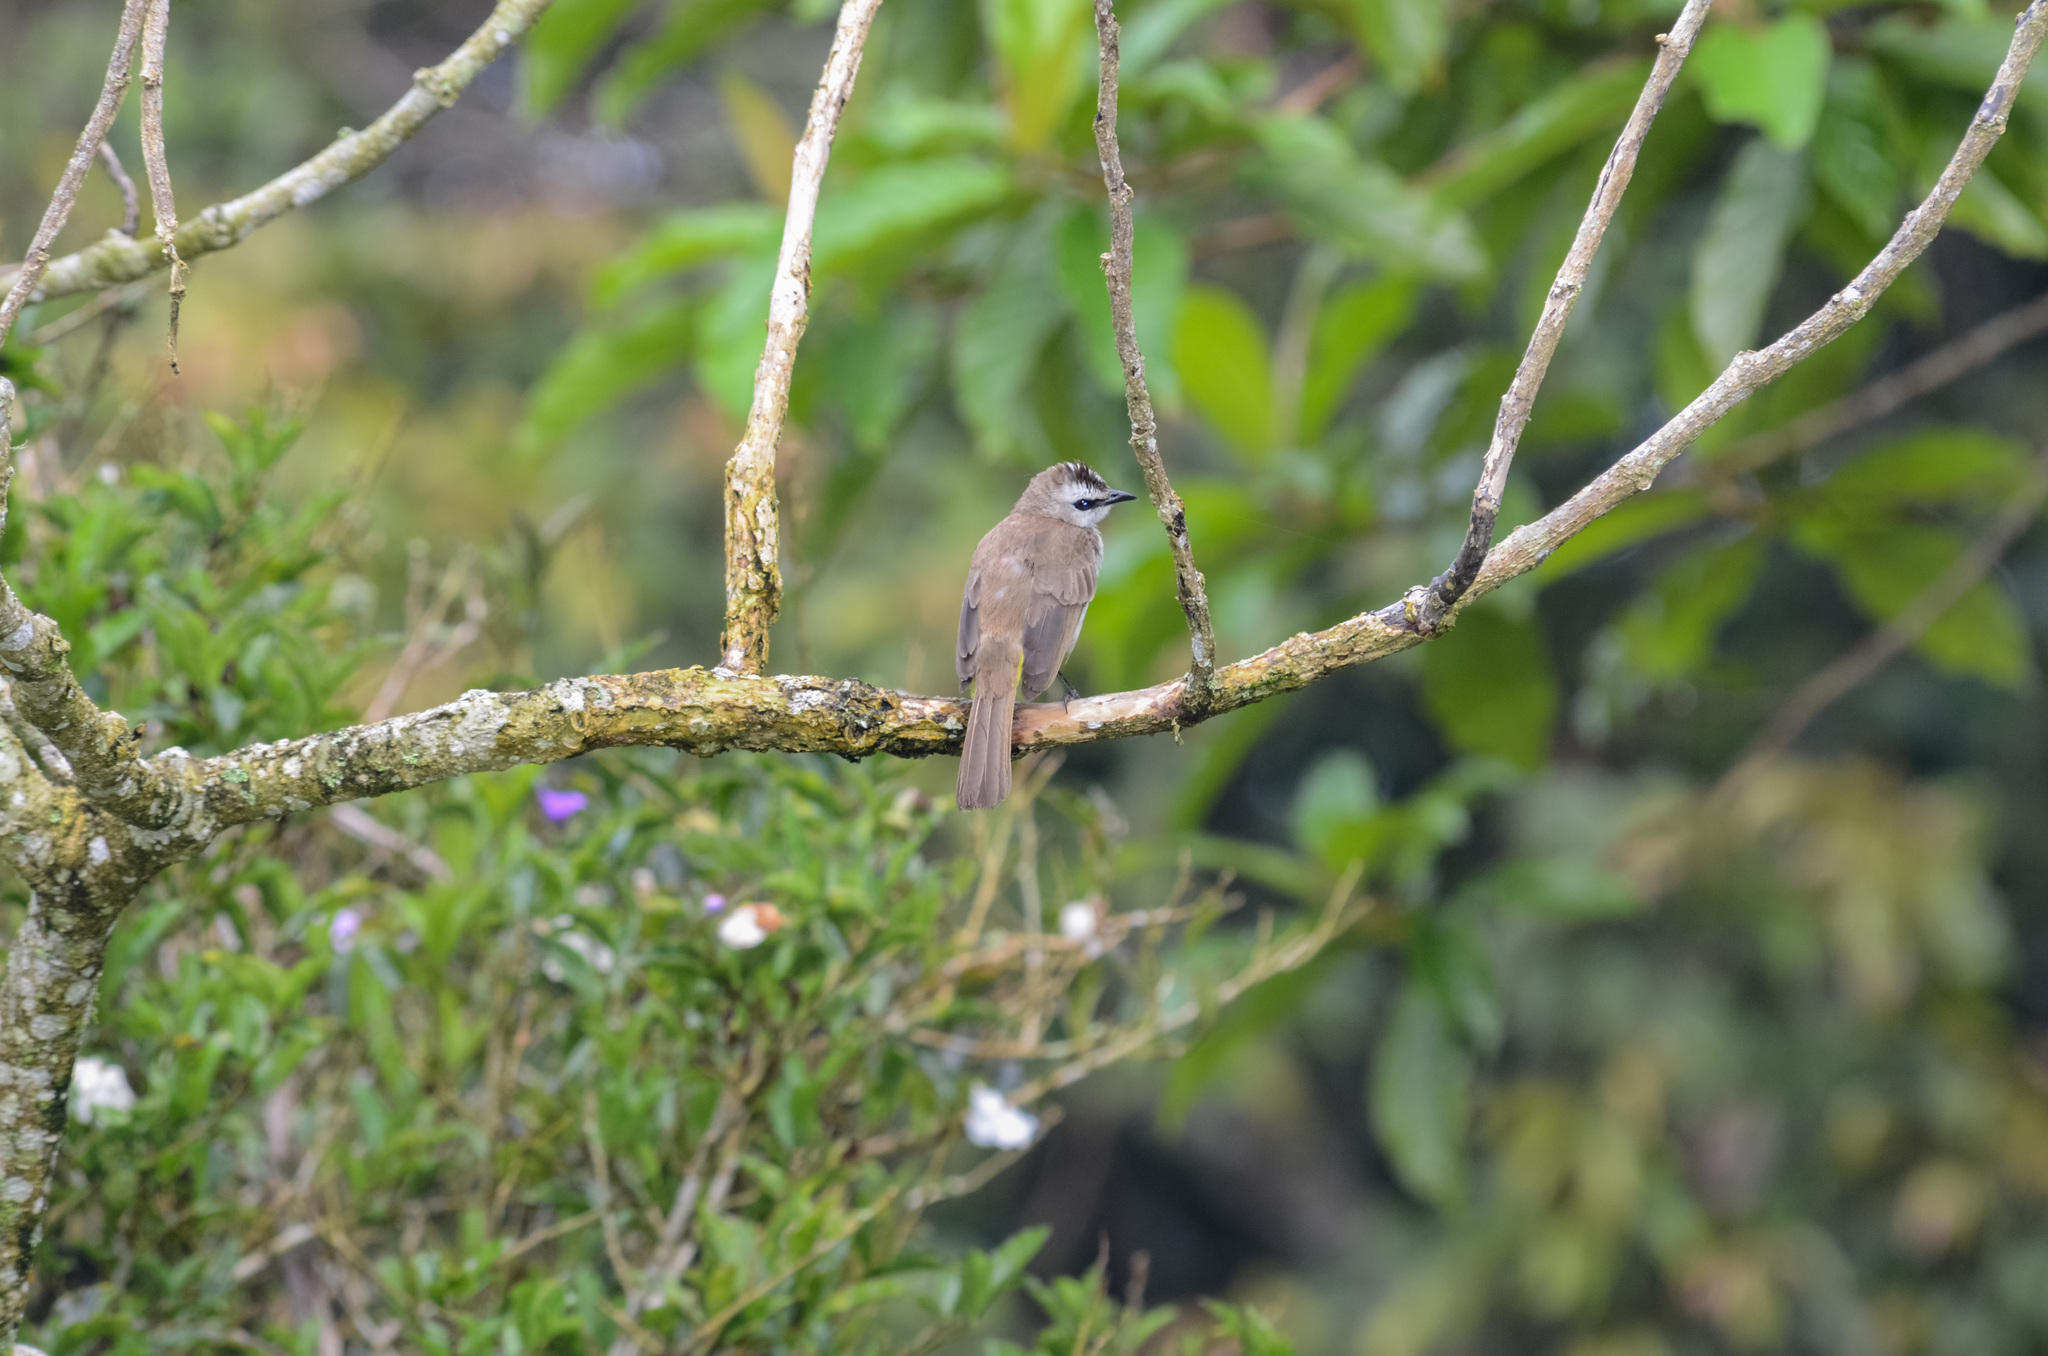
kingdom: Animalia
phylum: Chordata
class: Aves
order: Passeriformes
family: Pycnonotidae
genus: Pycnonotus
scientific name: Pycnonotus goiavier
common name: Yellow-vented bulbul
